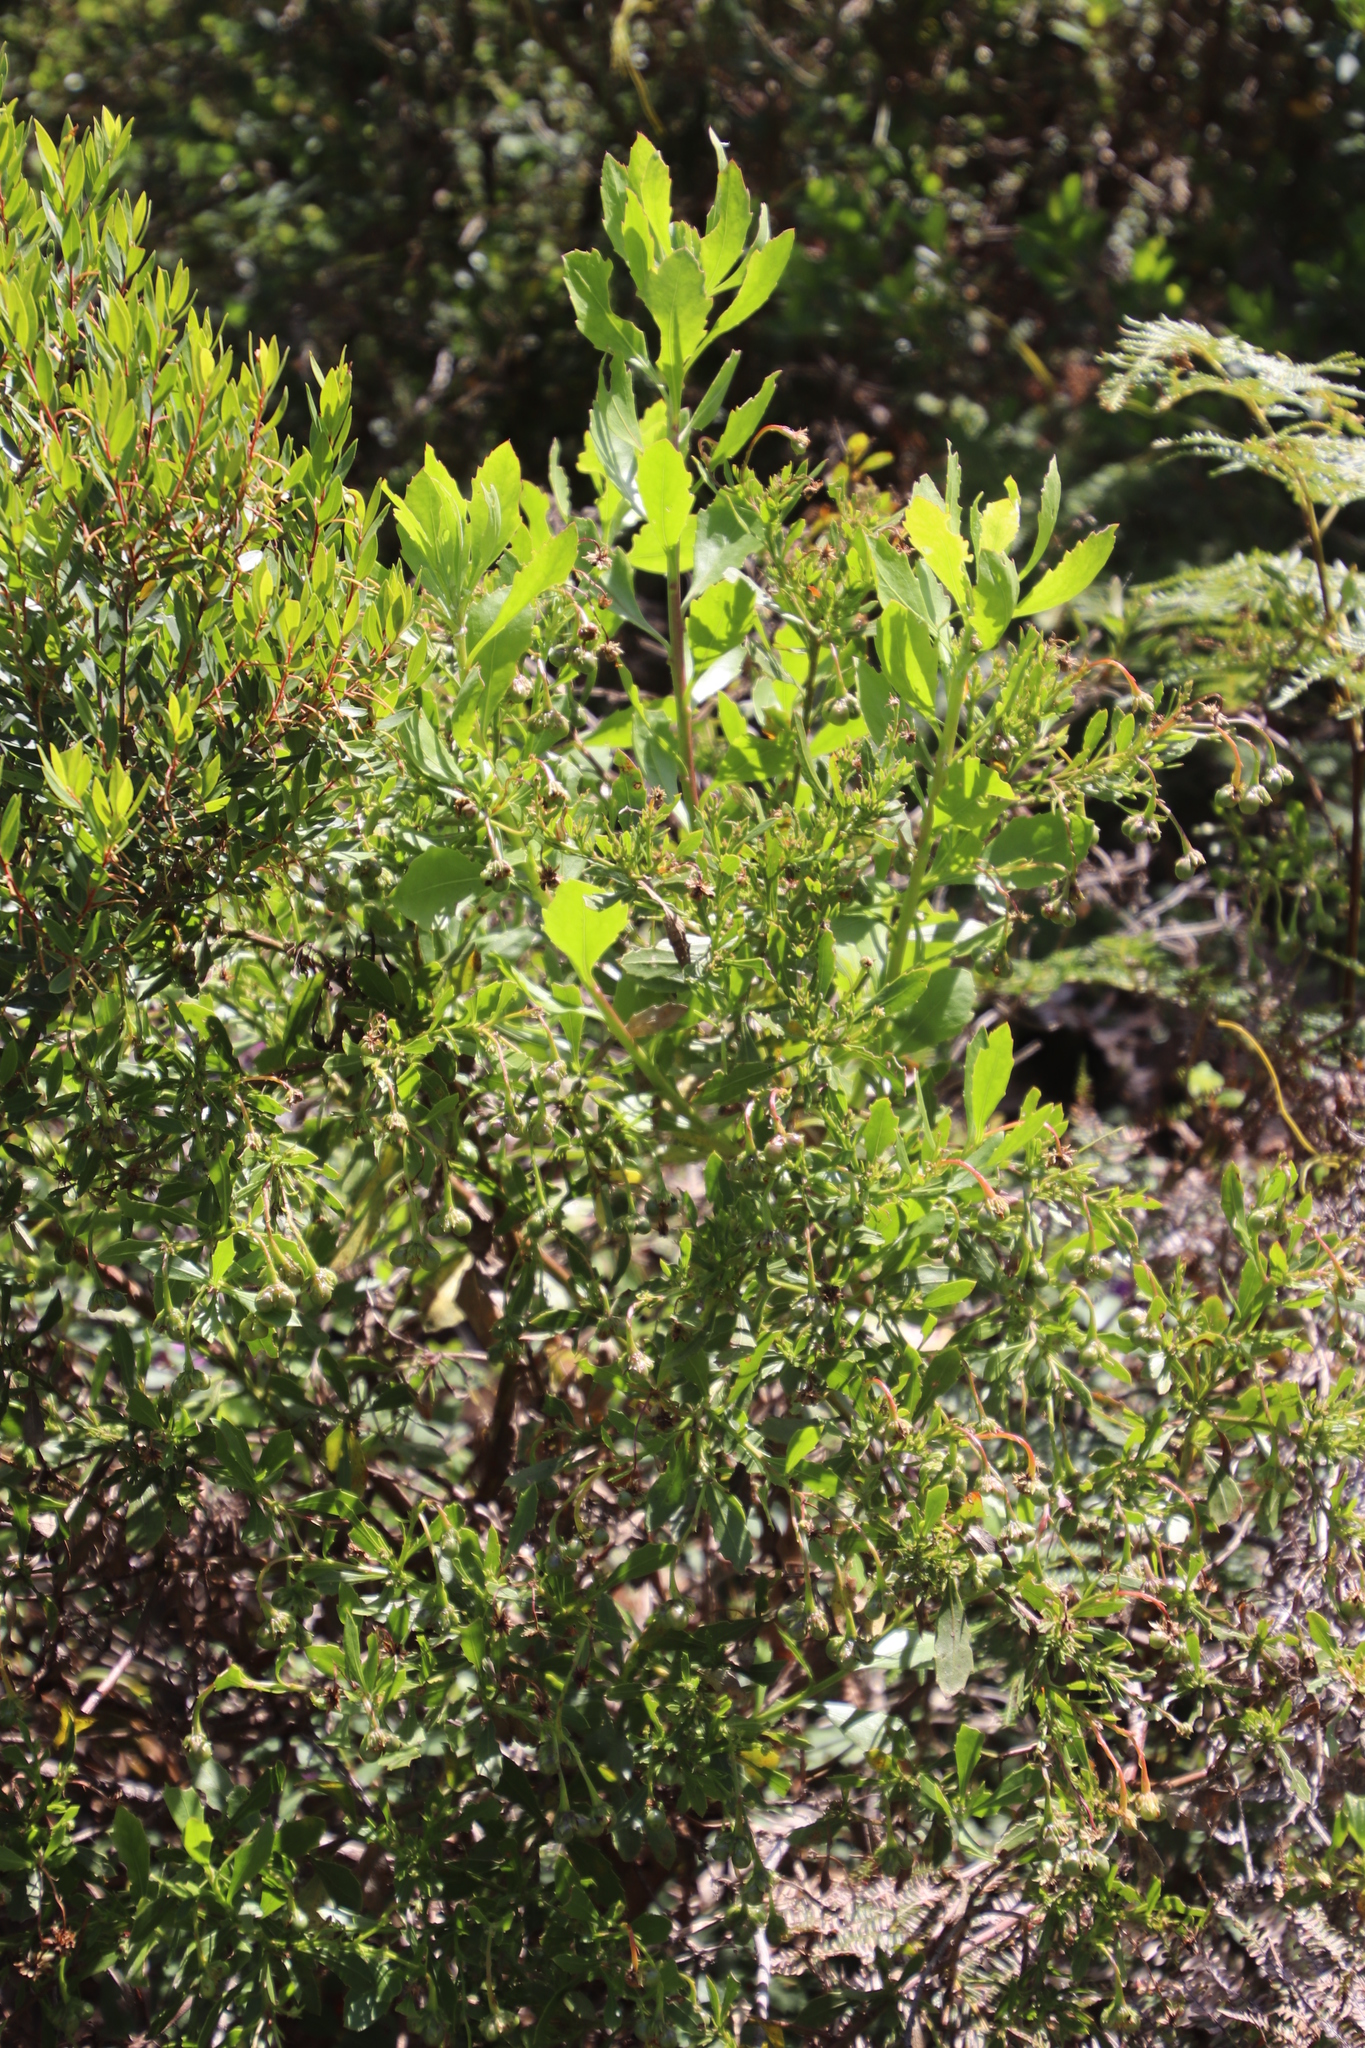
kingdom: Plantae
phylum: Tracheophyta
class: Magnoliopsida
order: Asterales
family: Asteraceae
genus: Osteospermum
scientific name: Osteospermum moniliferum
